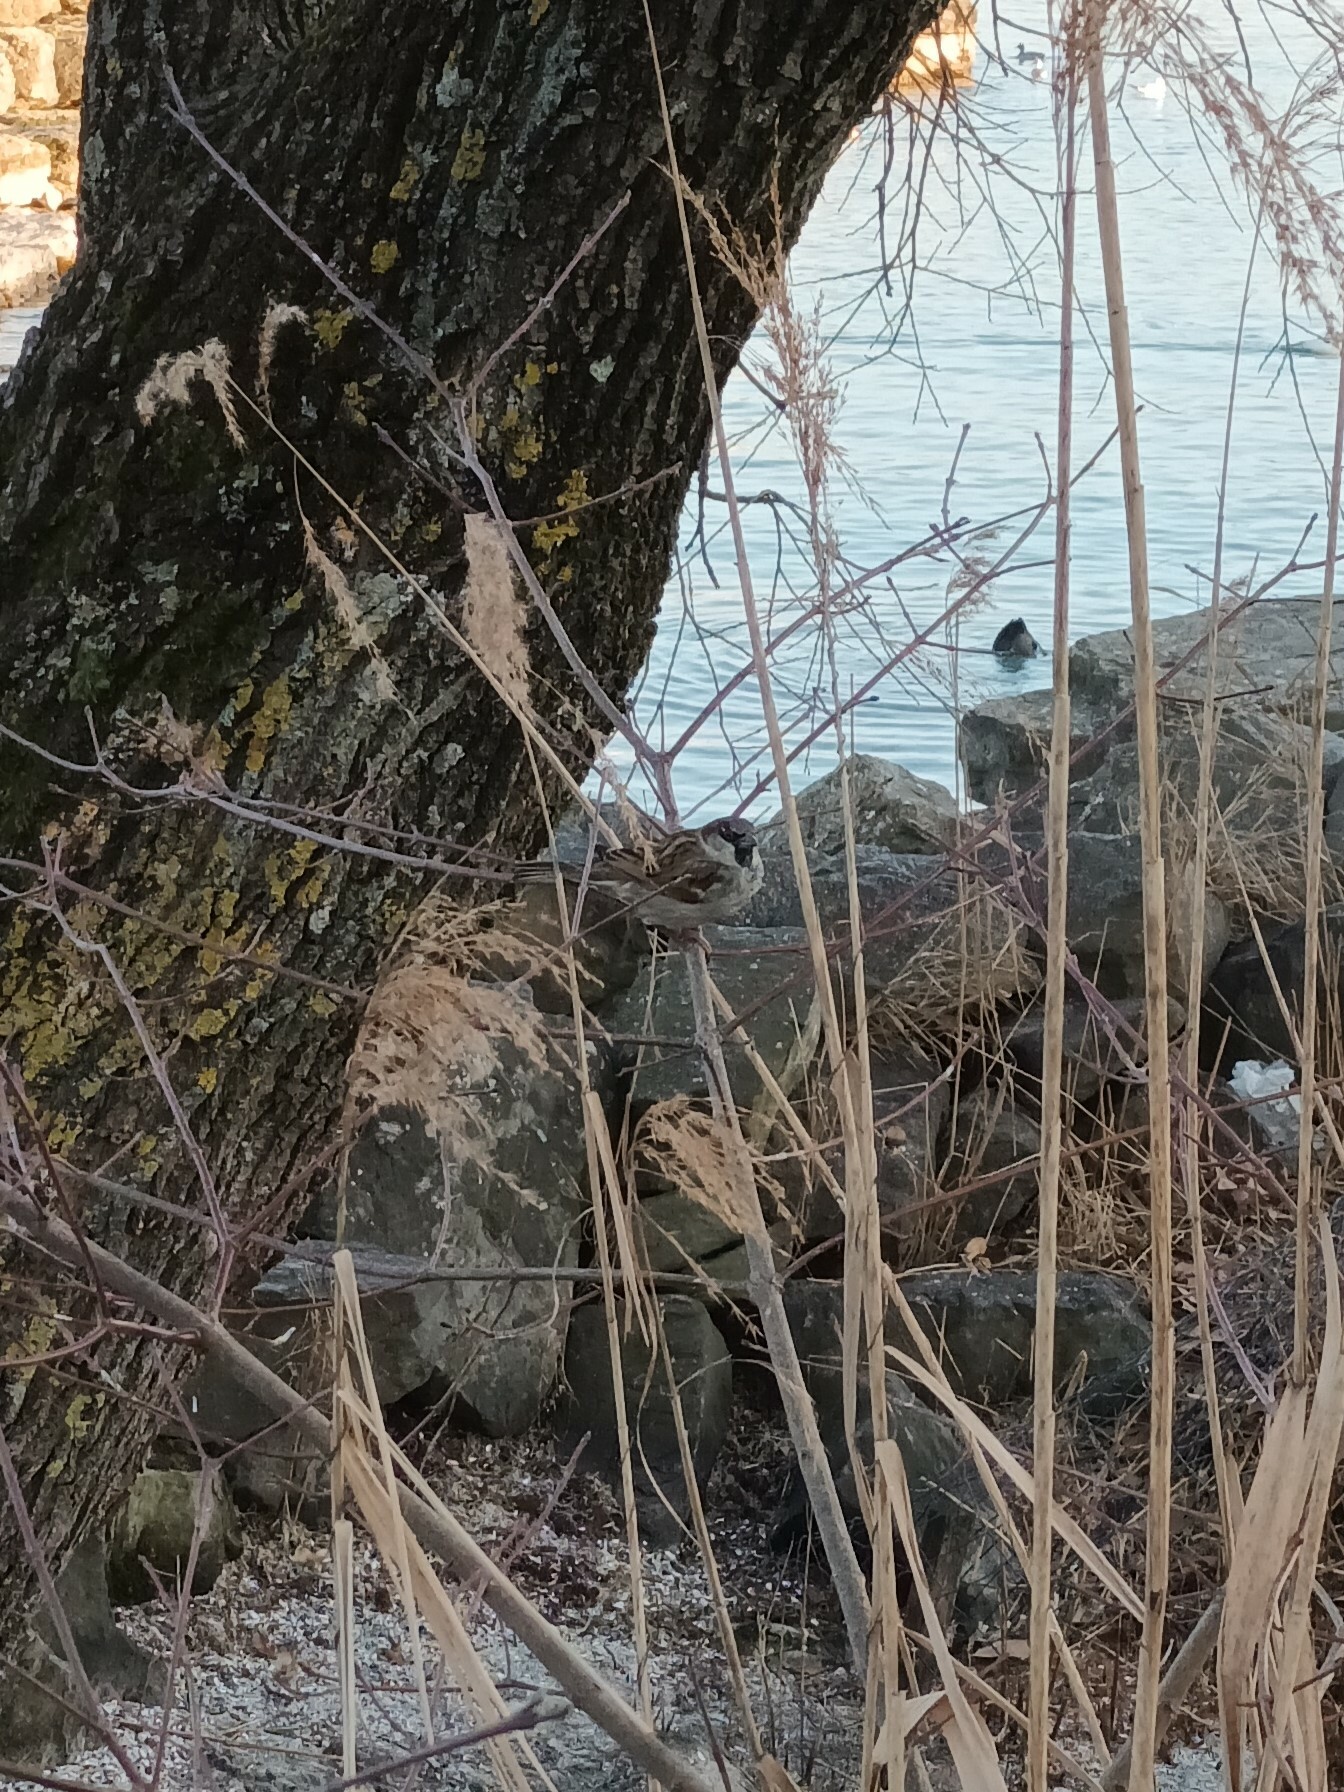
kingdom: Animalia
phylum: Chordata
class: Aves
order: Passeriformes
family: Passeridae
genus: Passer
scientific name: Passer domesticus
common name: House sparrow
